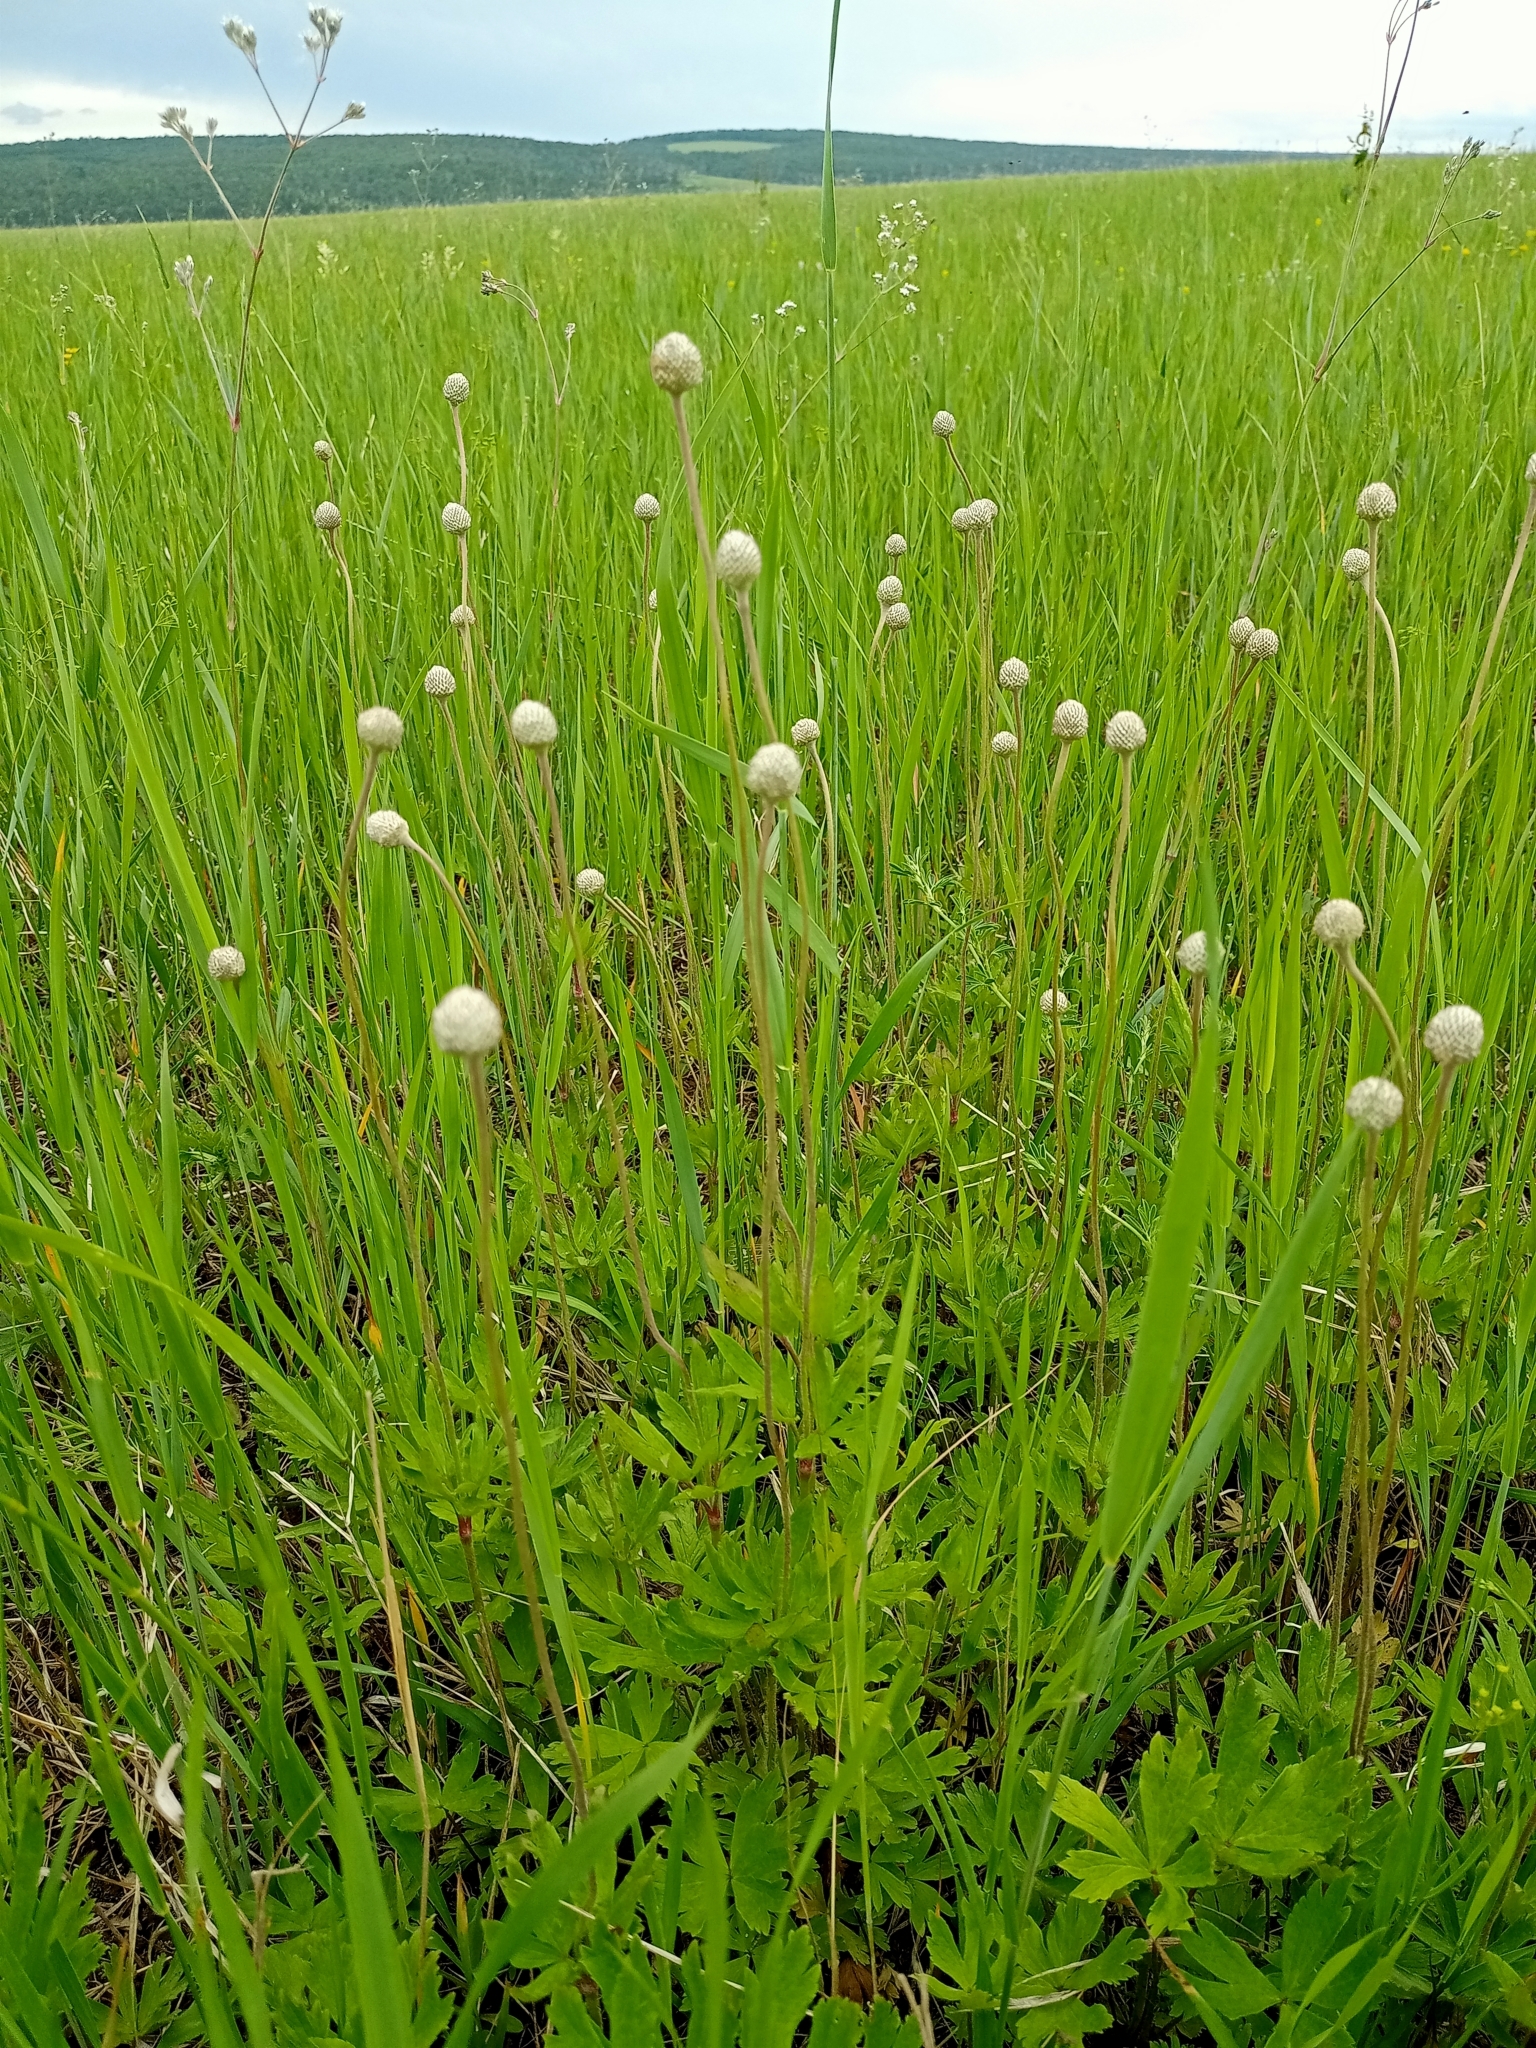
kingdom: Plantae
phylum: Tracheophyta
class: Magnoliopsida
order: Ranunculales
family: Ranunculaceae
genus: Anemone
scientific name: Anemone sylvestris
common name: Snowdrop anemone
